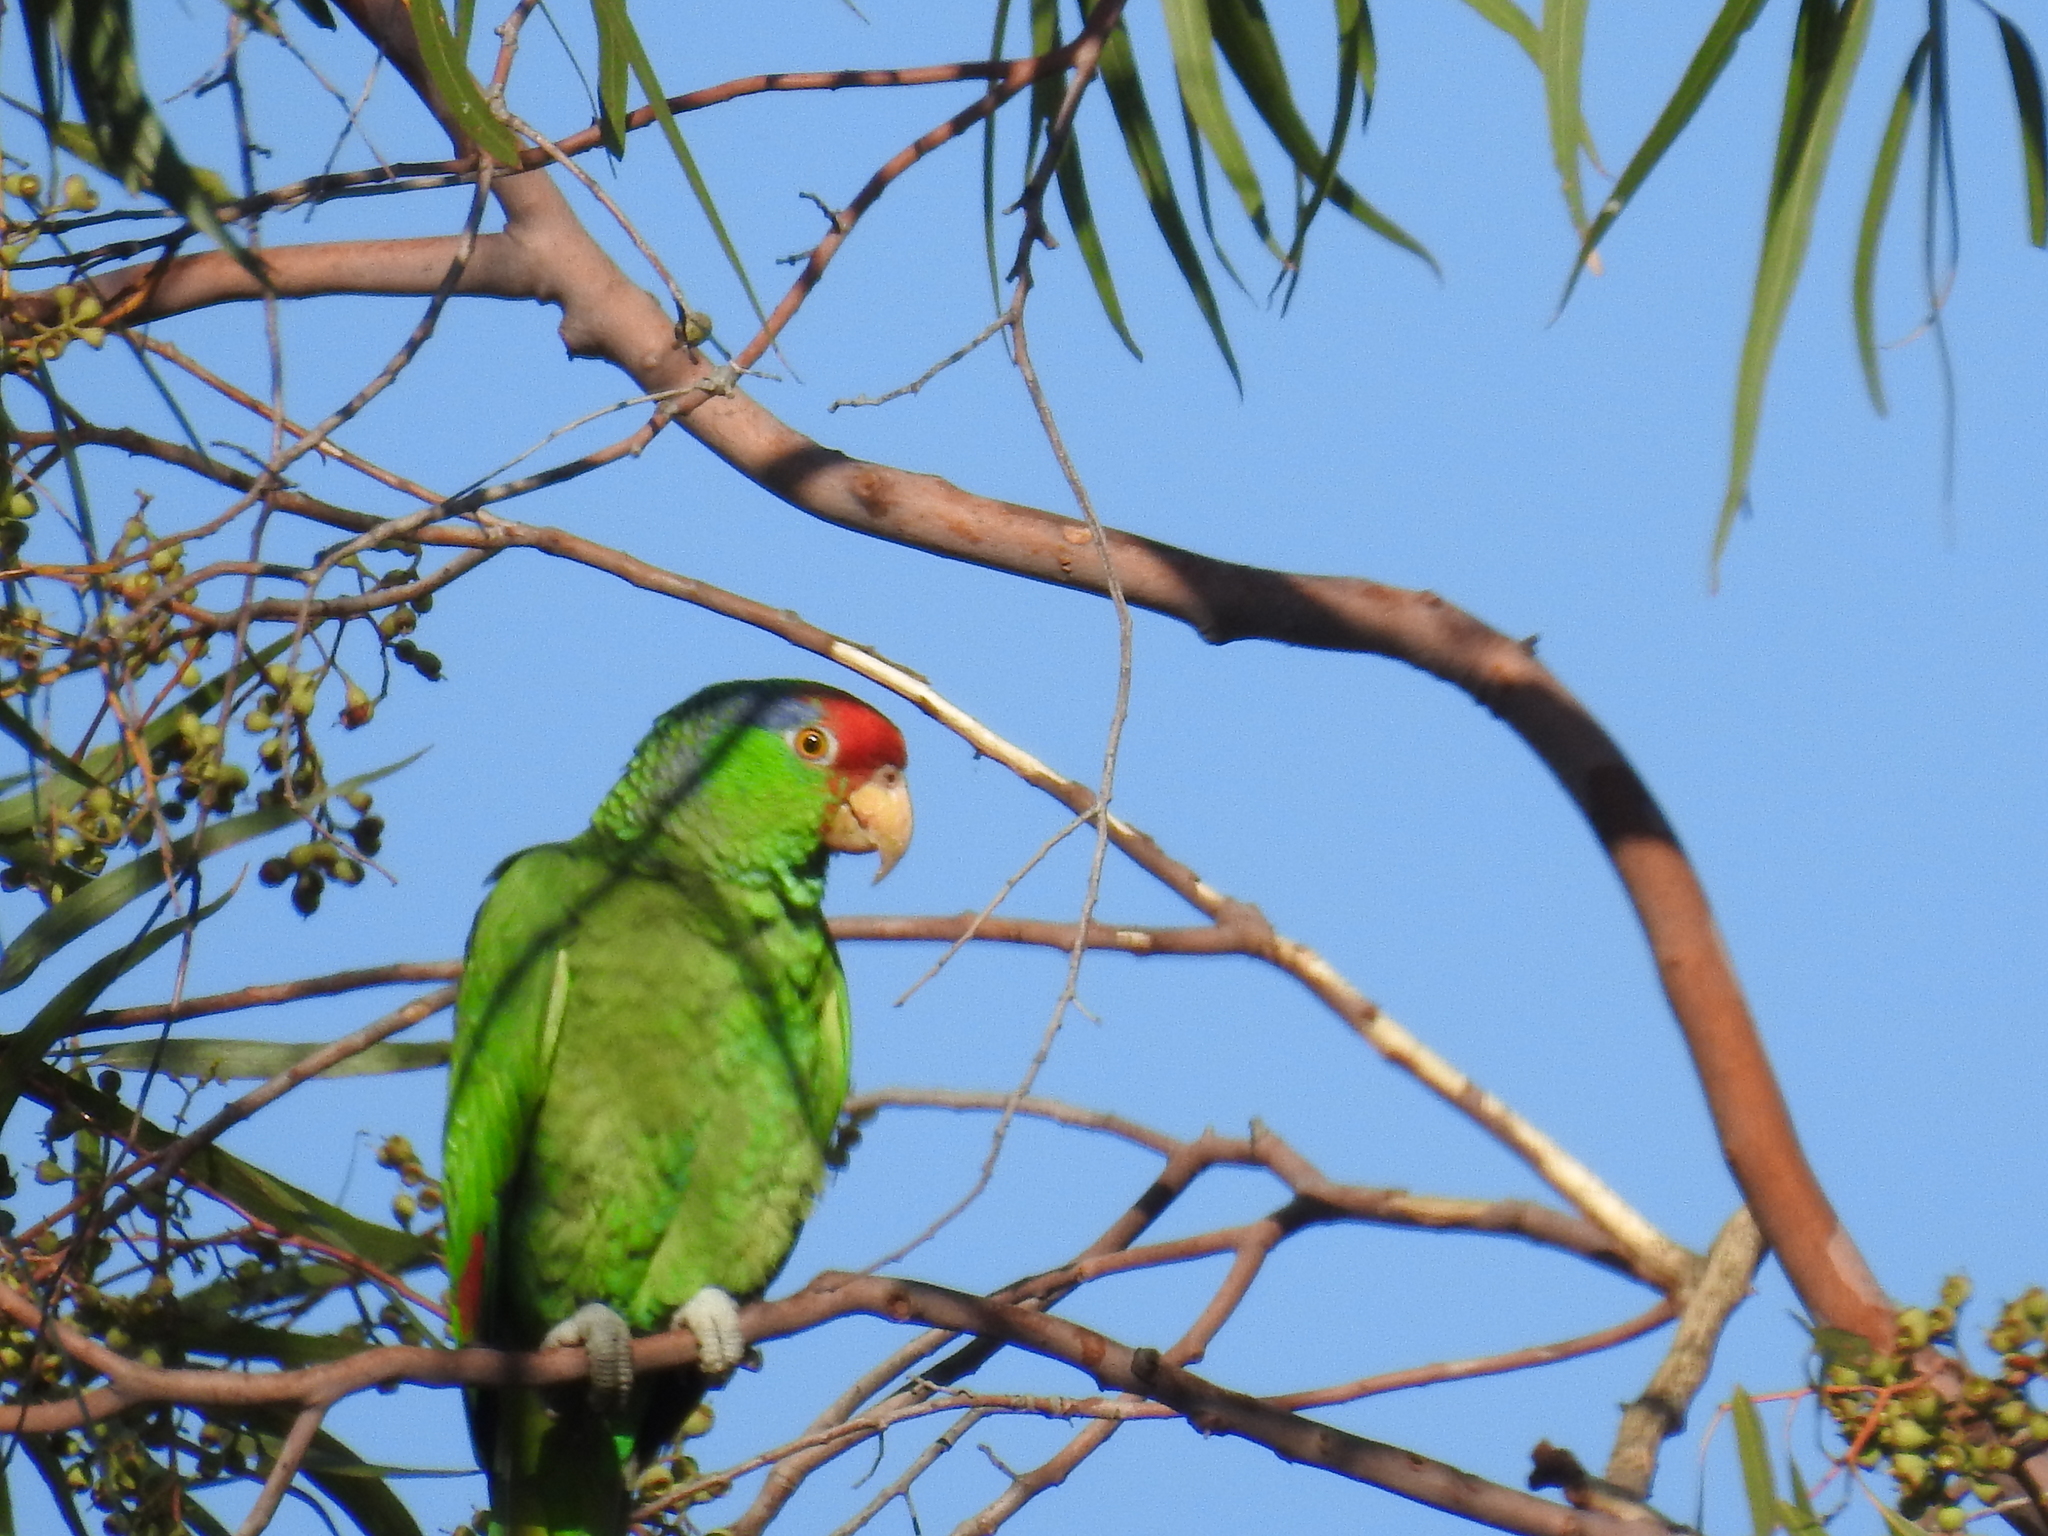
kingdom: Animalia
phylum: Chordata
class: Aves
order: Psittaciformes
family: Psittacidae
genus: Amazona
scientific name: Amazona viridigenalis
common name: Red-crowned amazon
